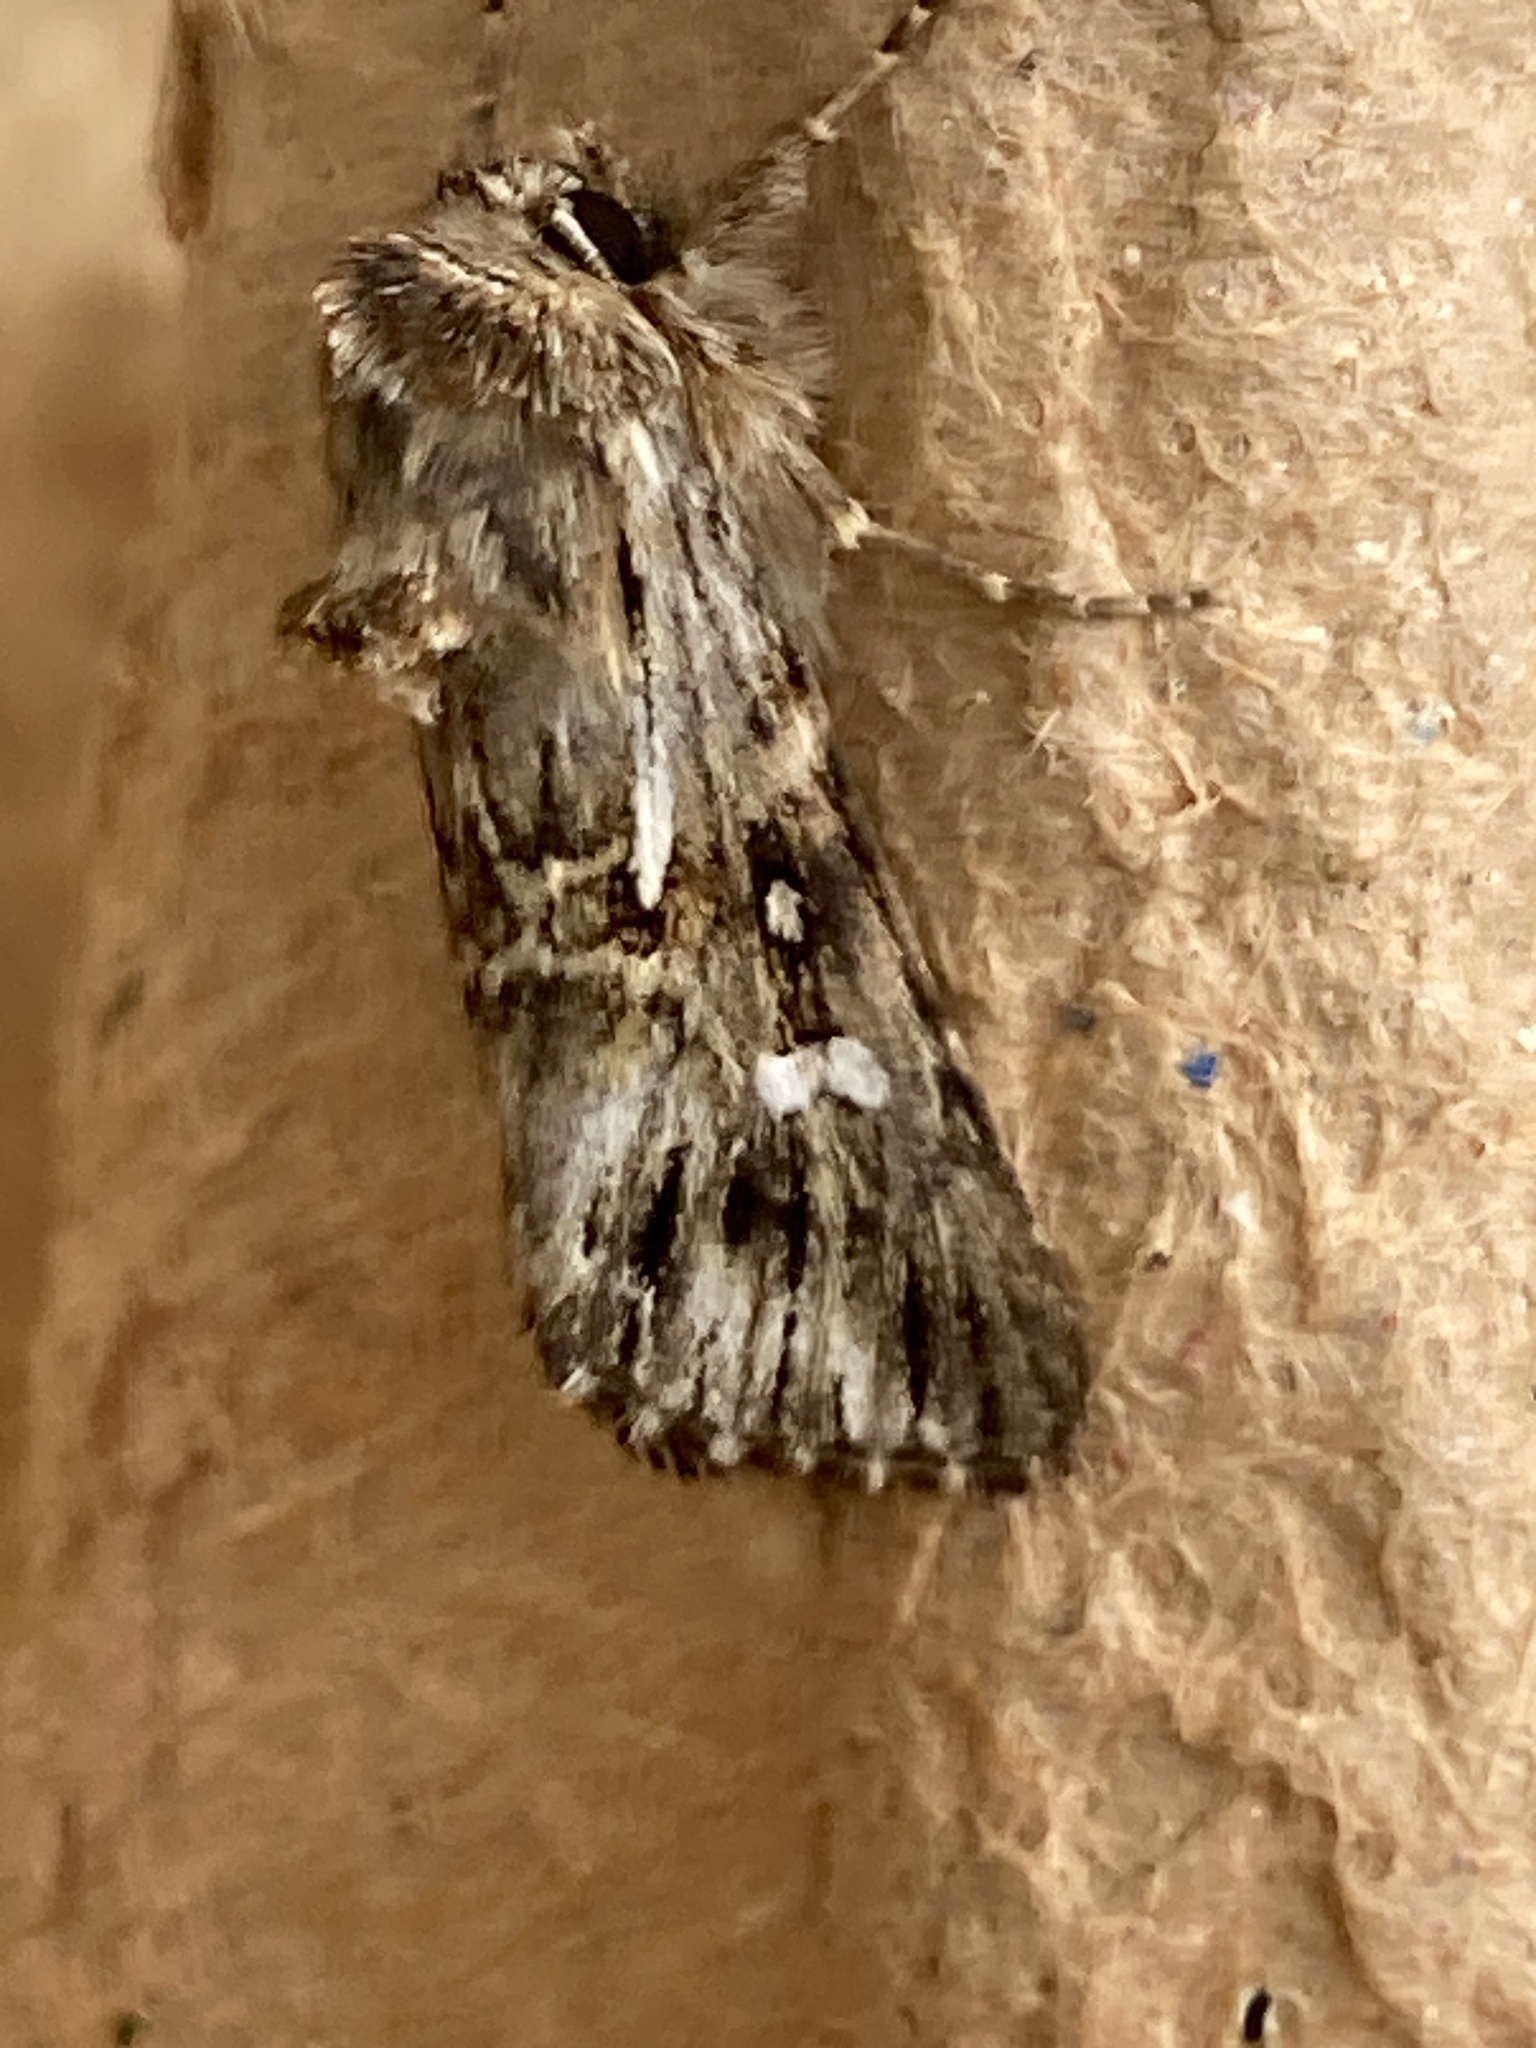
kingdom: Animalia
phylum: Arthropoda
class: Insecta
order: Lepidoptera
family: Noctuidae
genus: Calophasia
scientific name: Calophasia lunula
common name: Toadflax brocade
